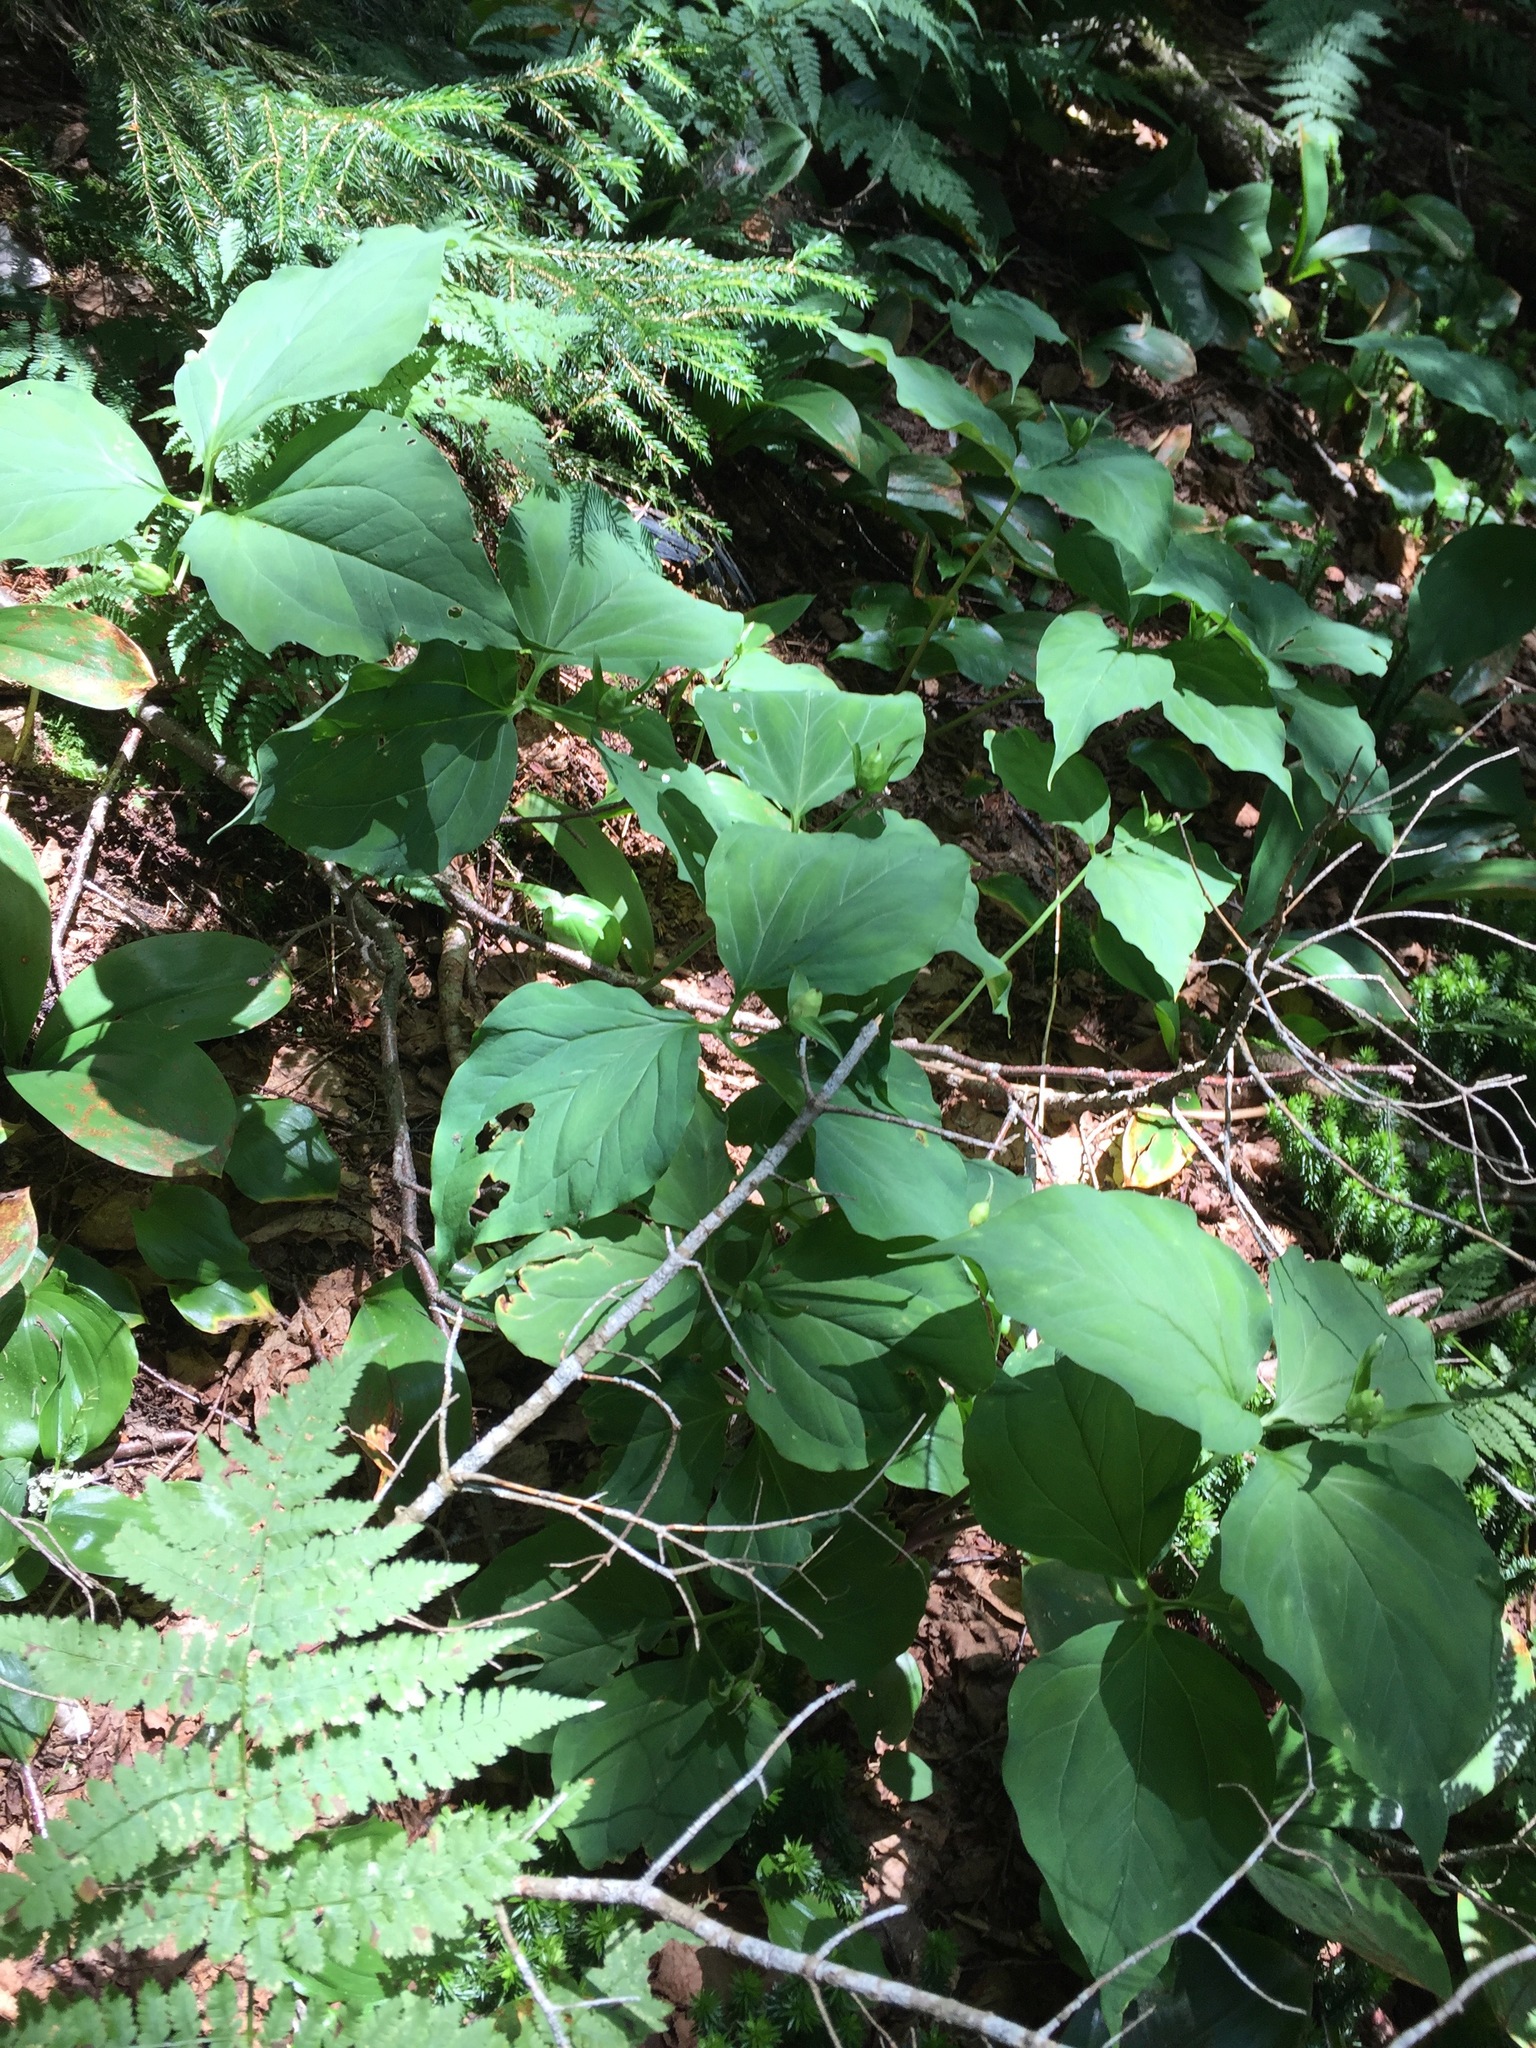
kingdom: Plantae
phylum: Tracheophyta
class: Liliopsida
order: Liliales
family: Melanthiaceae
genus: Trillium
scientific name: Trillium undulatum
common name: Paint trillium
